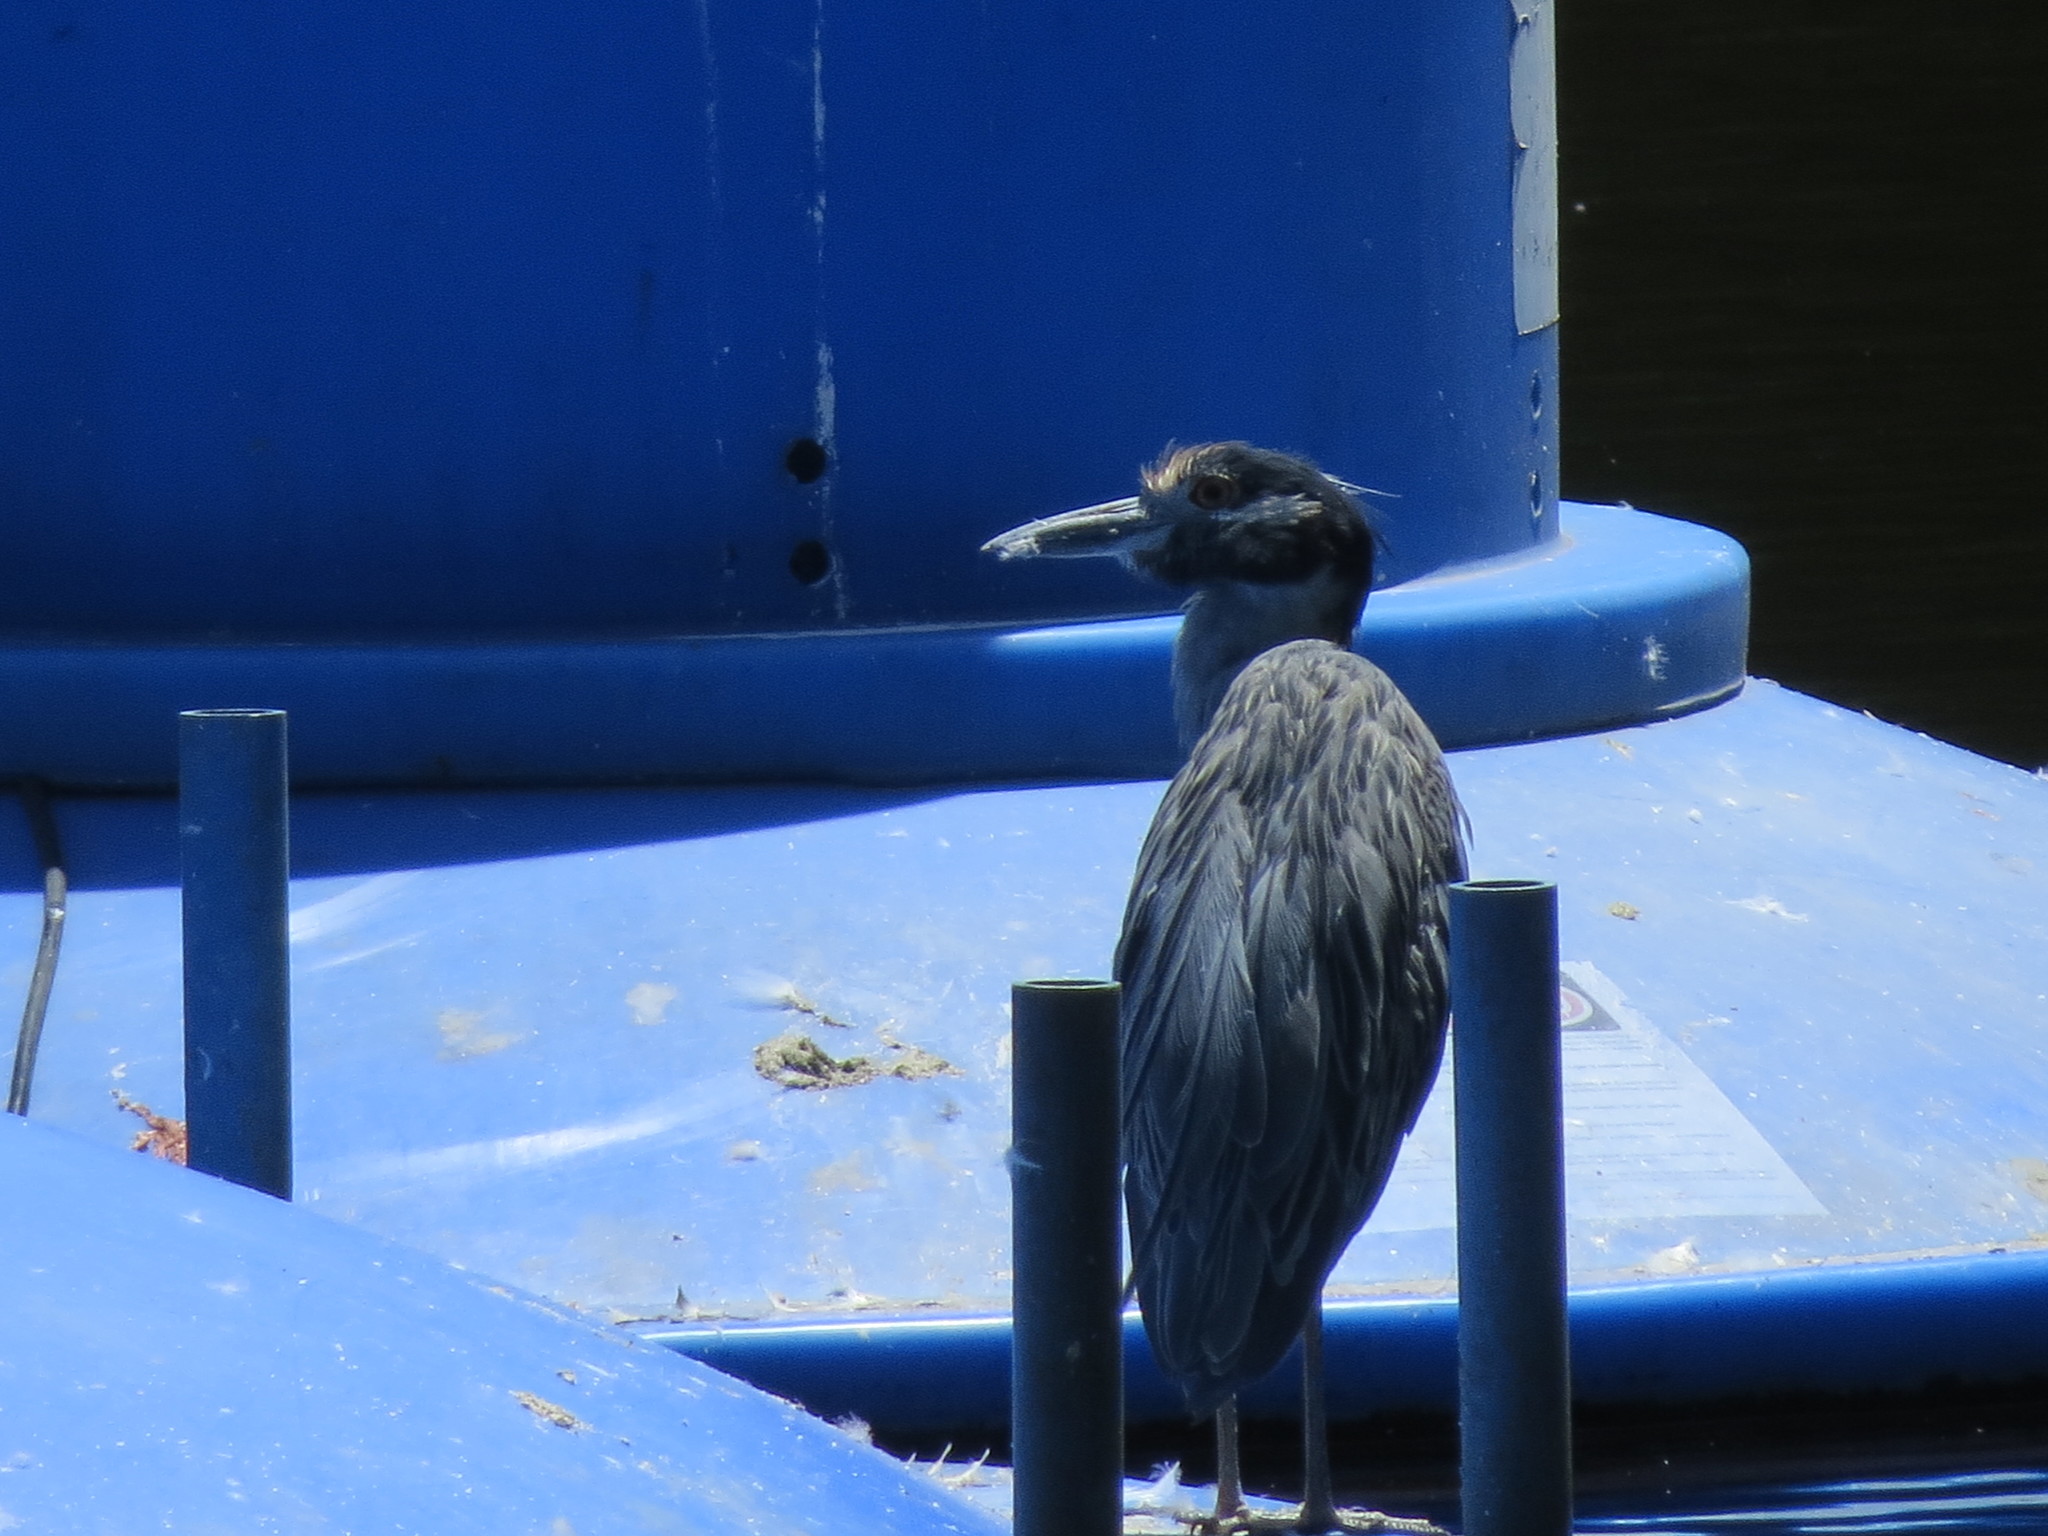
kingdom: Animalia
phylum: Chordata
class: Aves
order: Pelecaniformes
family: Ardeidae
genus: Nyctanassa
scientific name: Nyctanassa violacea
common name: Yellow-crowned night heron
